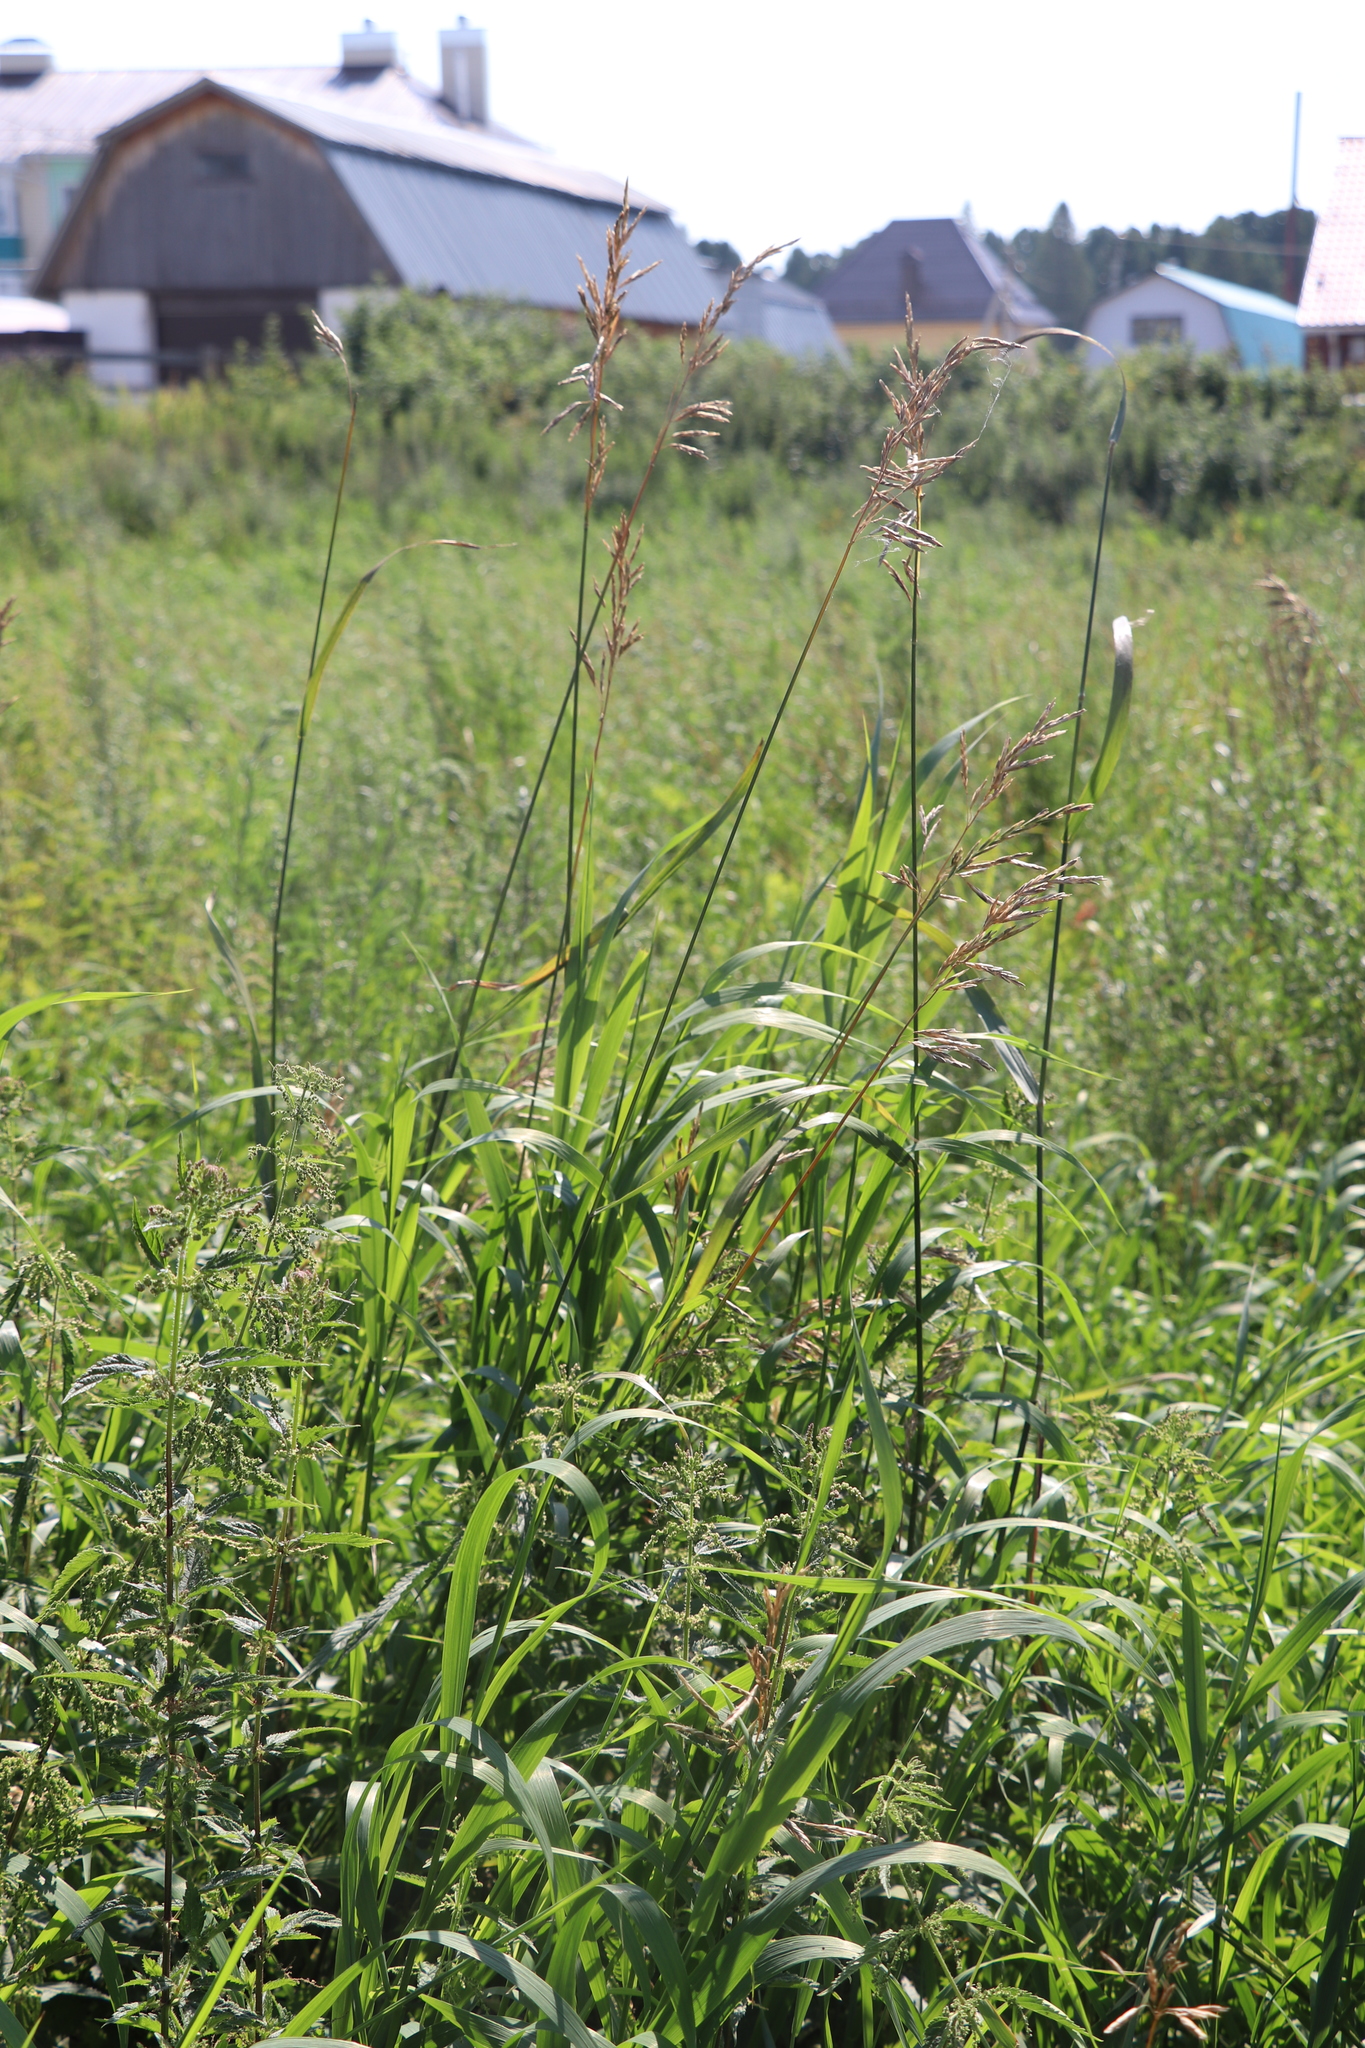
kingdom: Plantae
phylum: Tracheophyta
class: Liliopsida
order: Poales
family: Poaceae
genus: Bromus
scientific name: Bromus inermis
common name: Smooth brome
